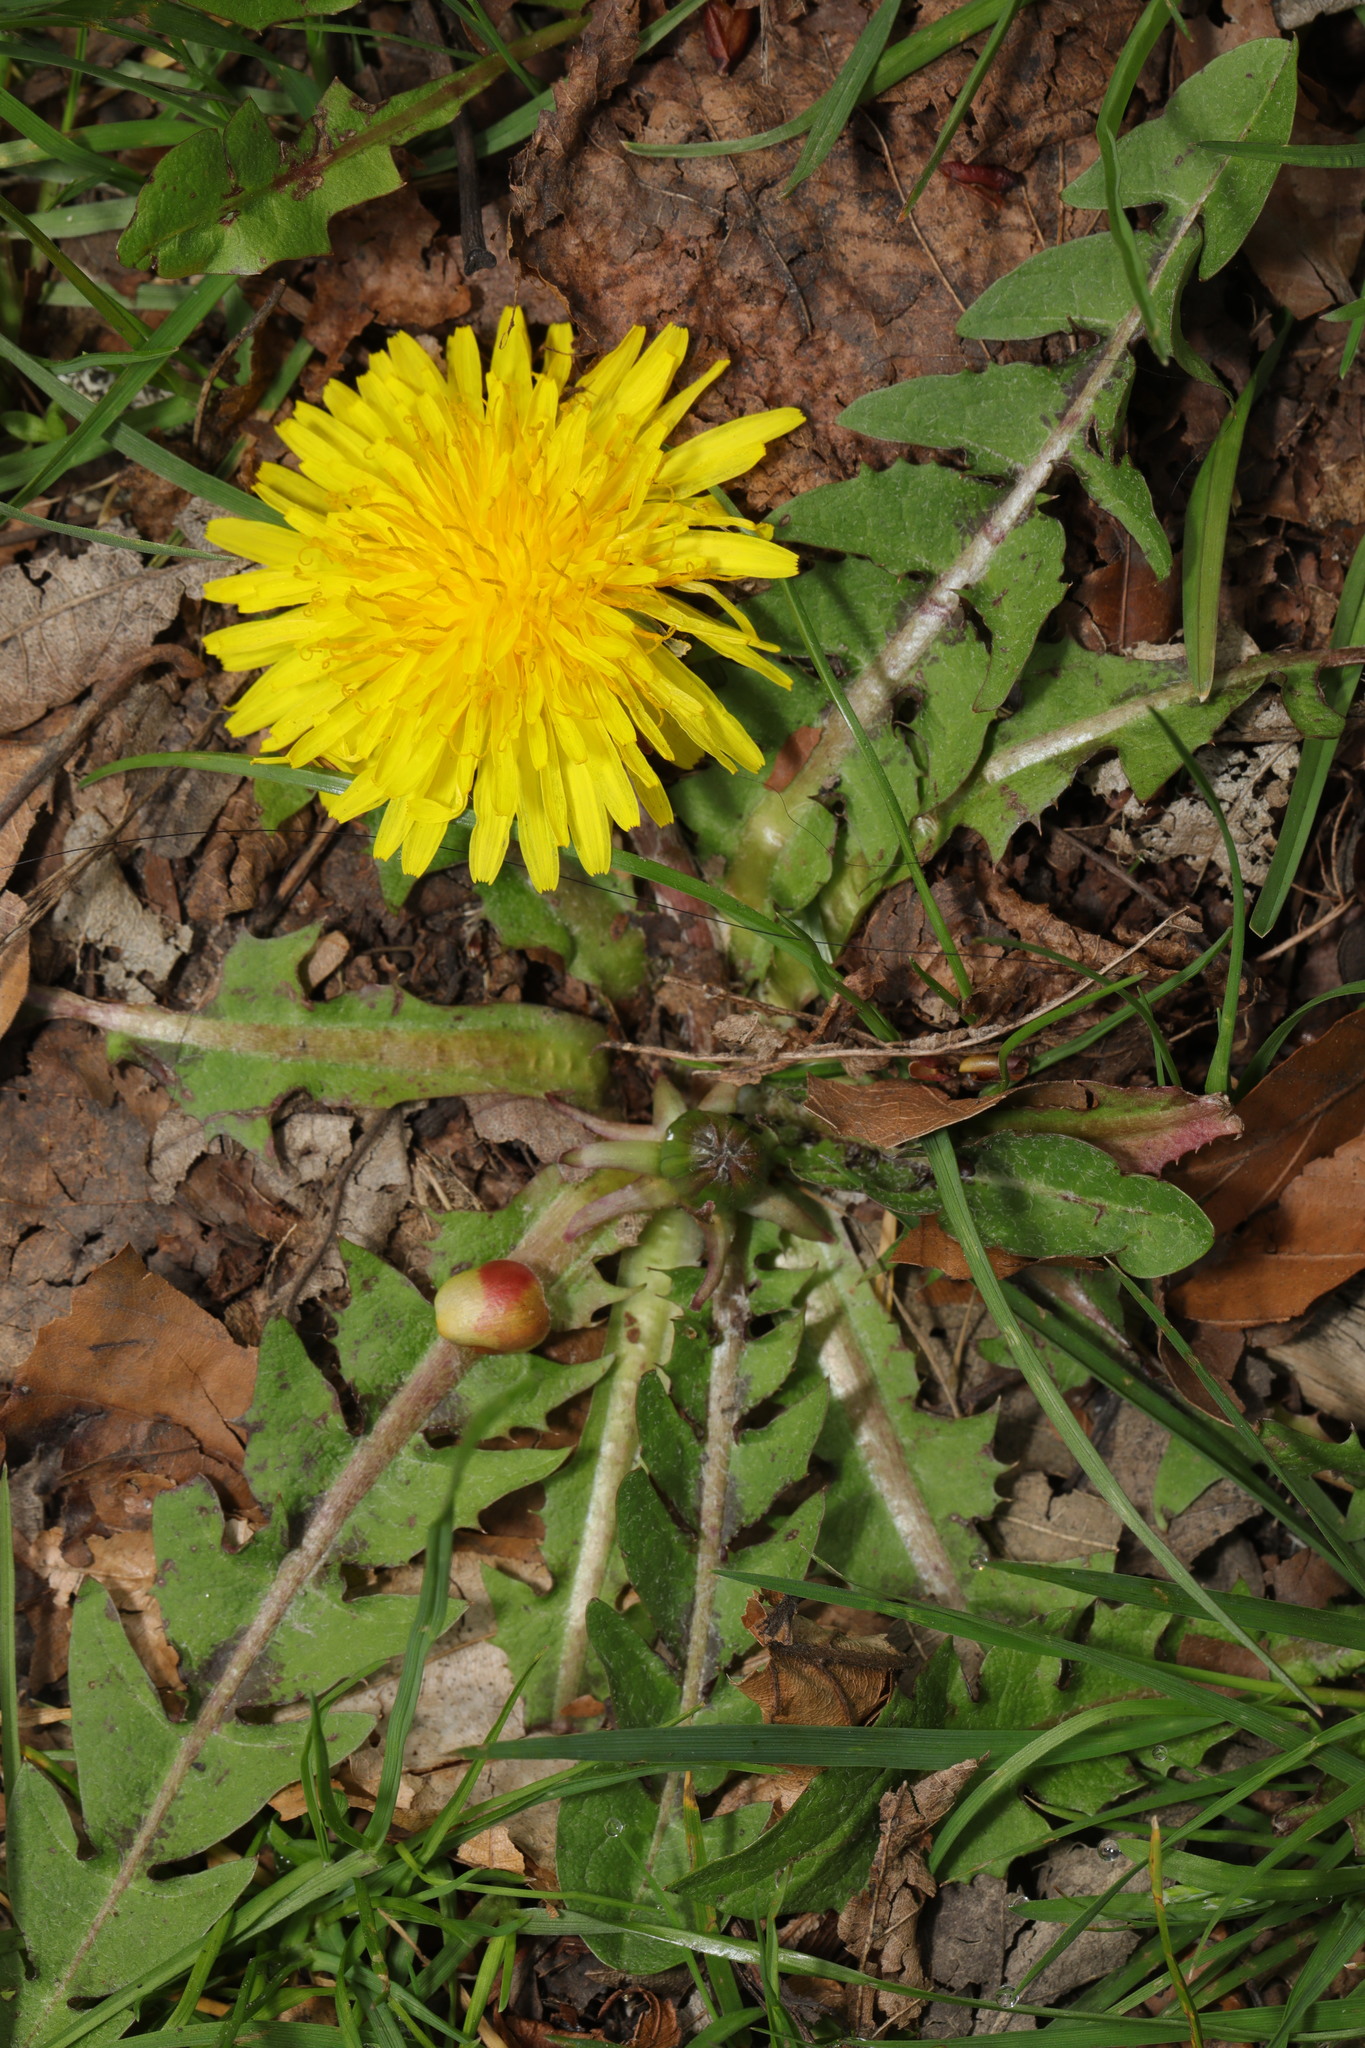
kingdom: Plantae
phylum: Tracheophyta
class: Magnoliopsida
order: Asterales
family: Asteraceae
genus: Taraxacum
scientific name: Taraxacum officinale
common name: Common dandelion
